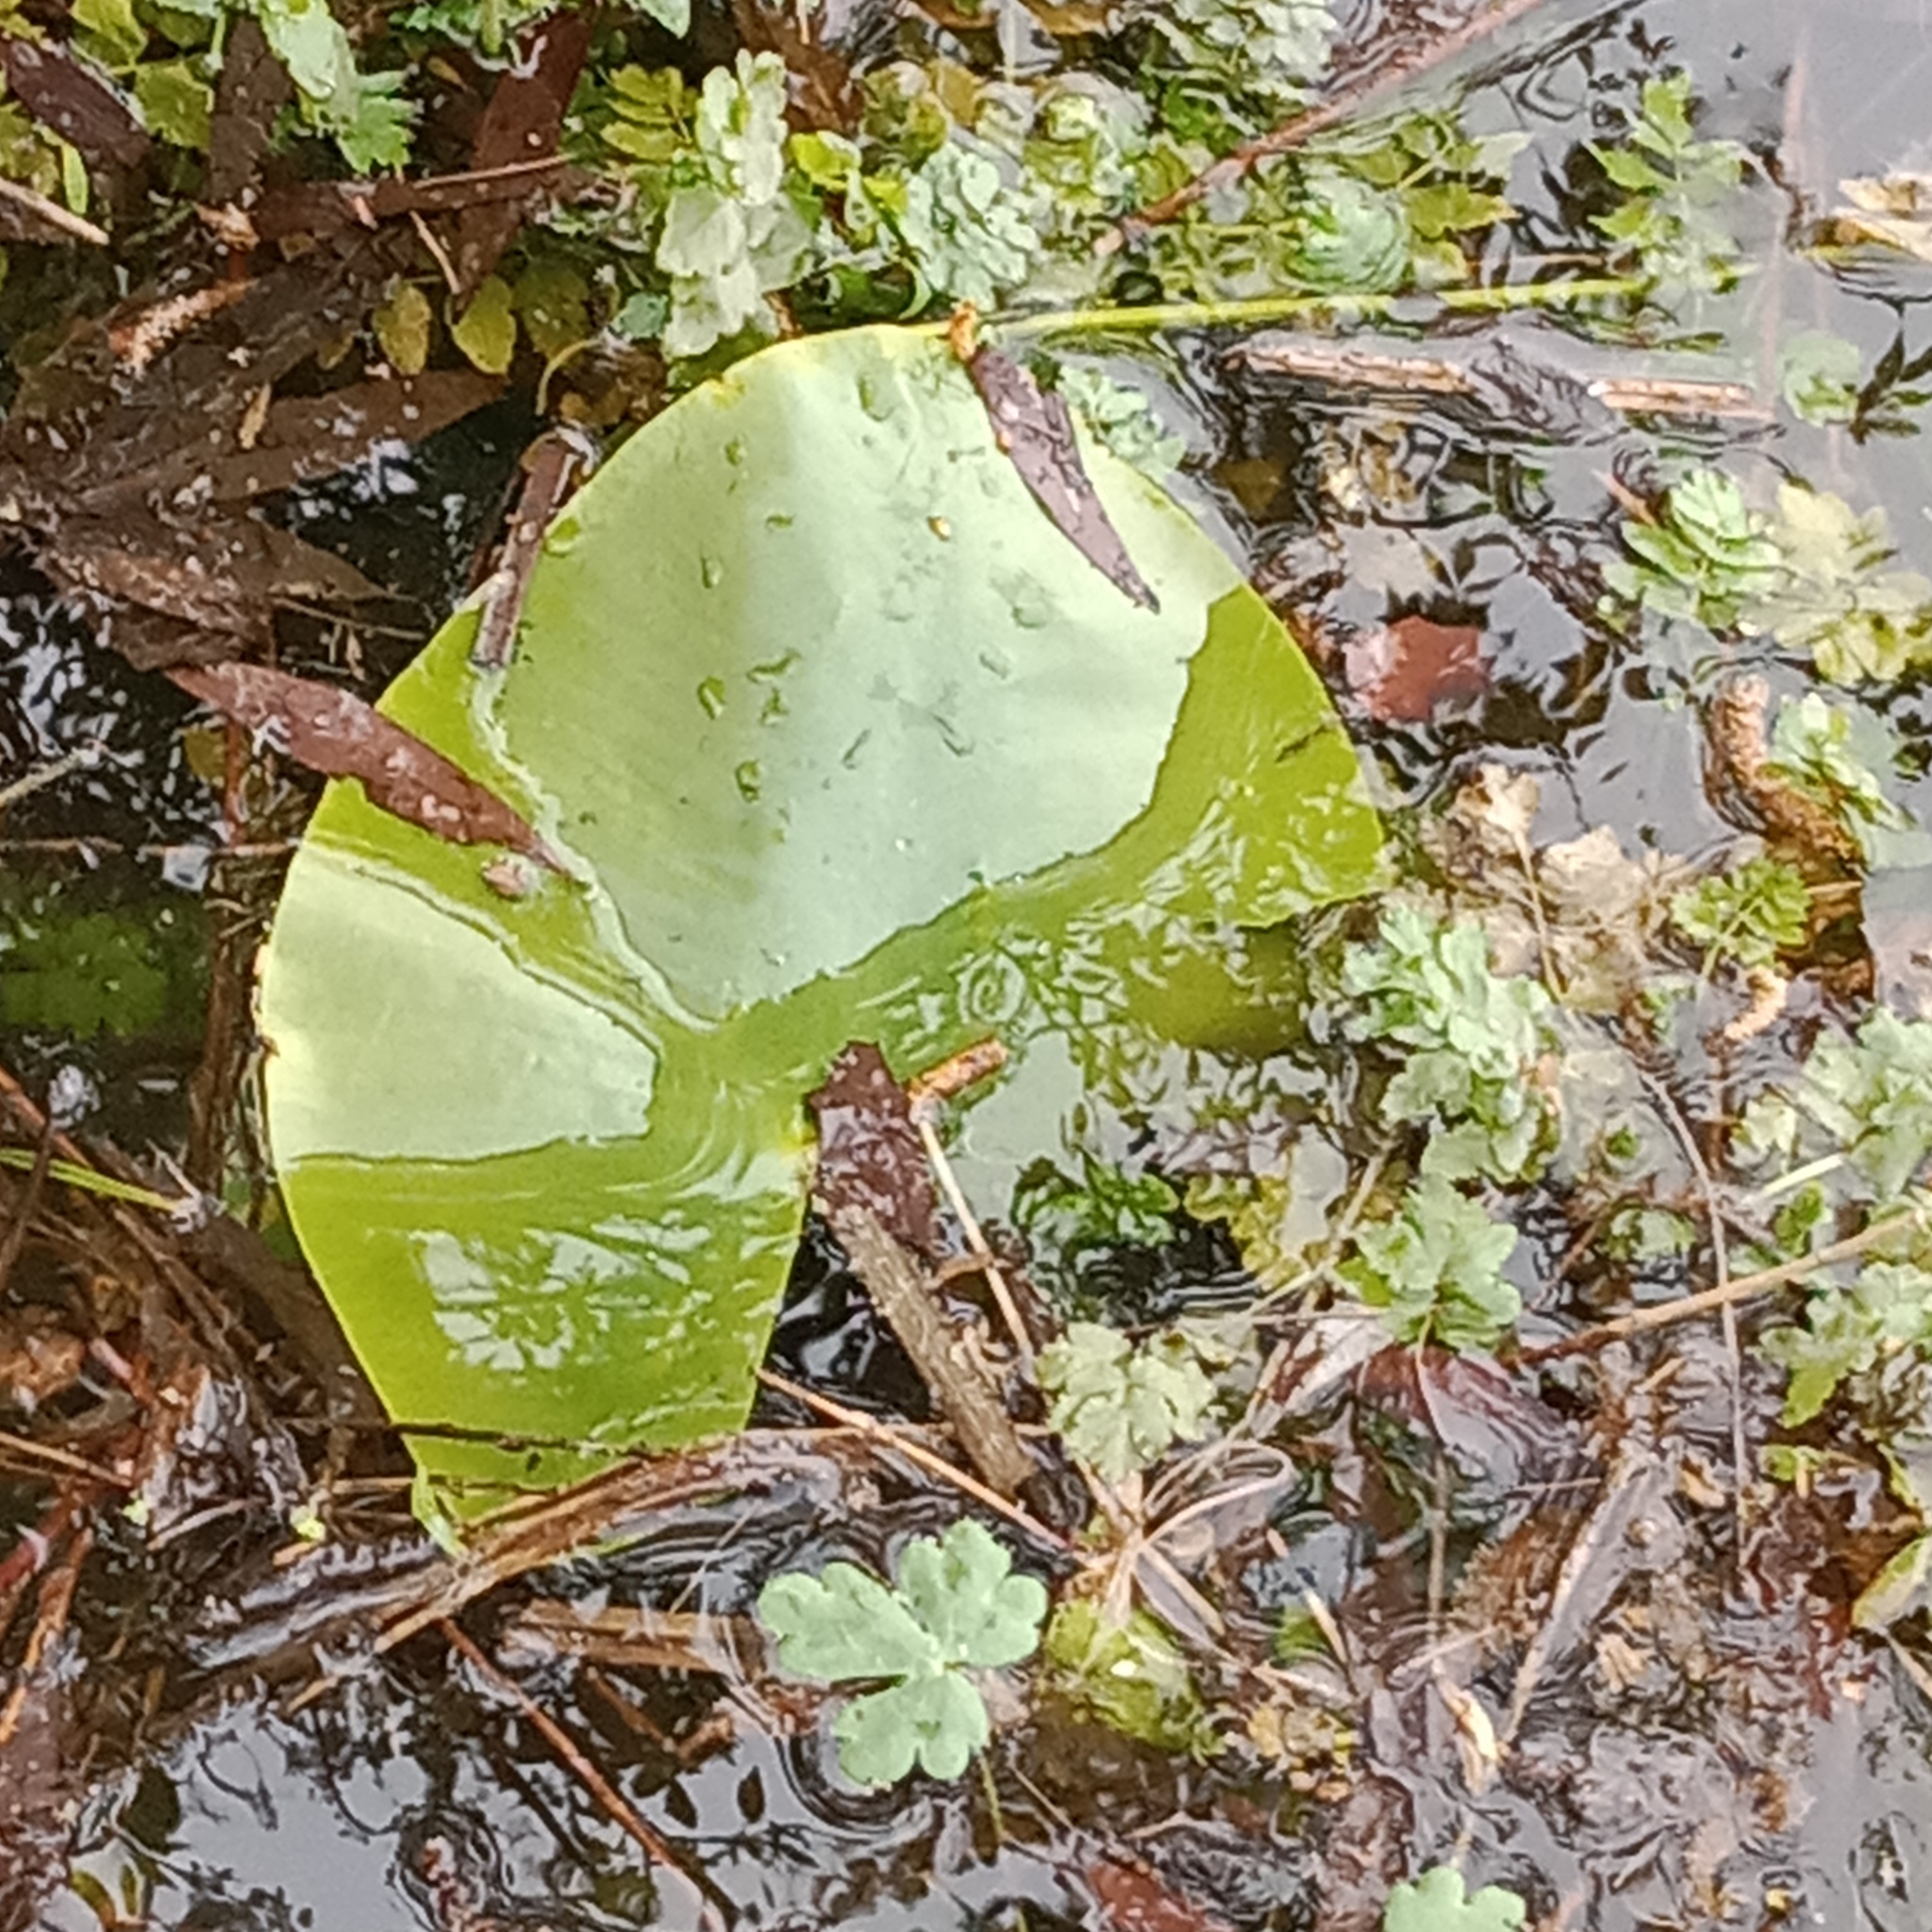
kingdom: Plantae
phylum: Tracheophyta
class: Magnoliopsida
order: Nymphaeales
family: Nymphaeaceae
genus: Nuphar
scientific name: Nuphar lutea
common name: Yellow water-lily
